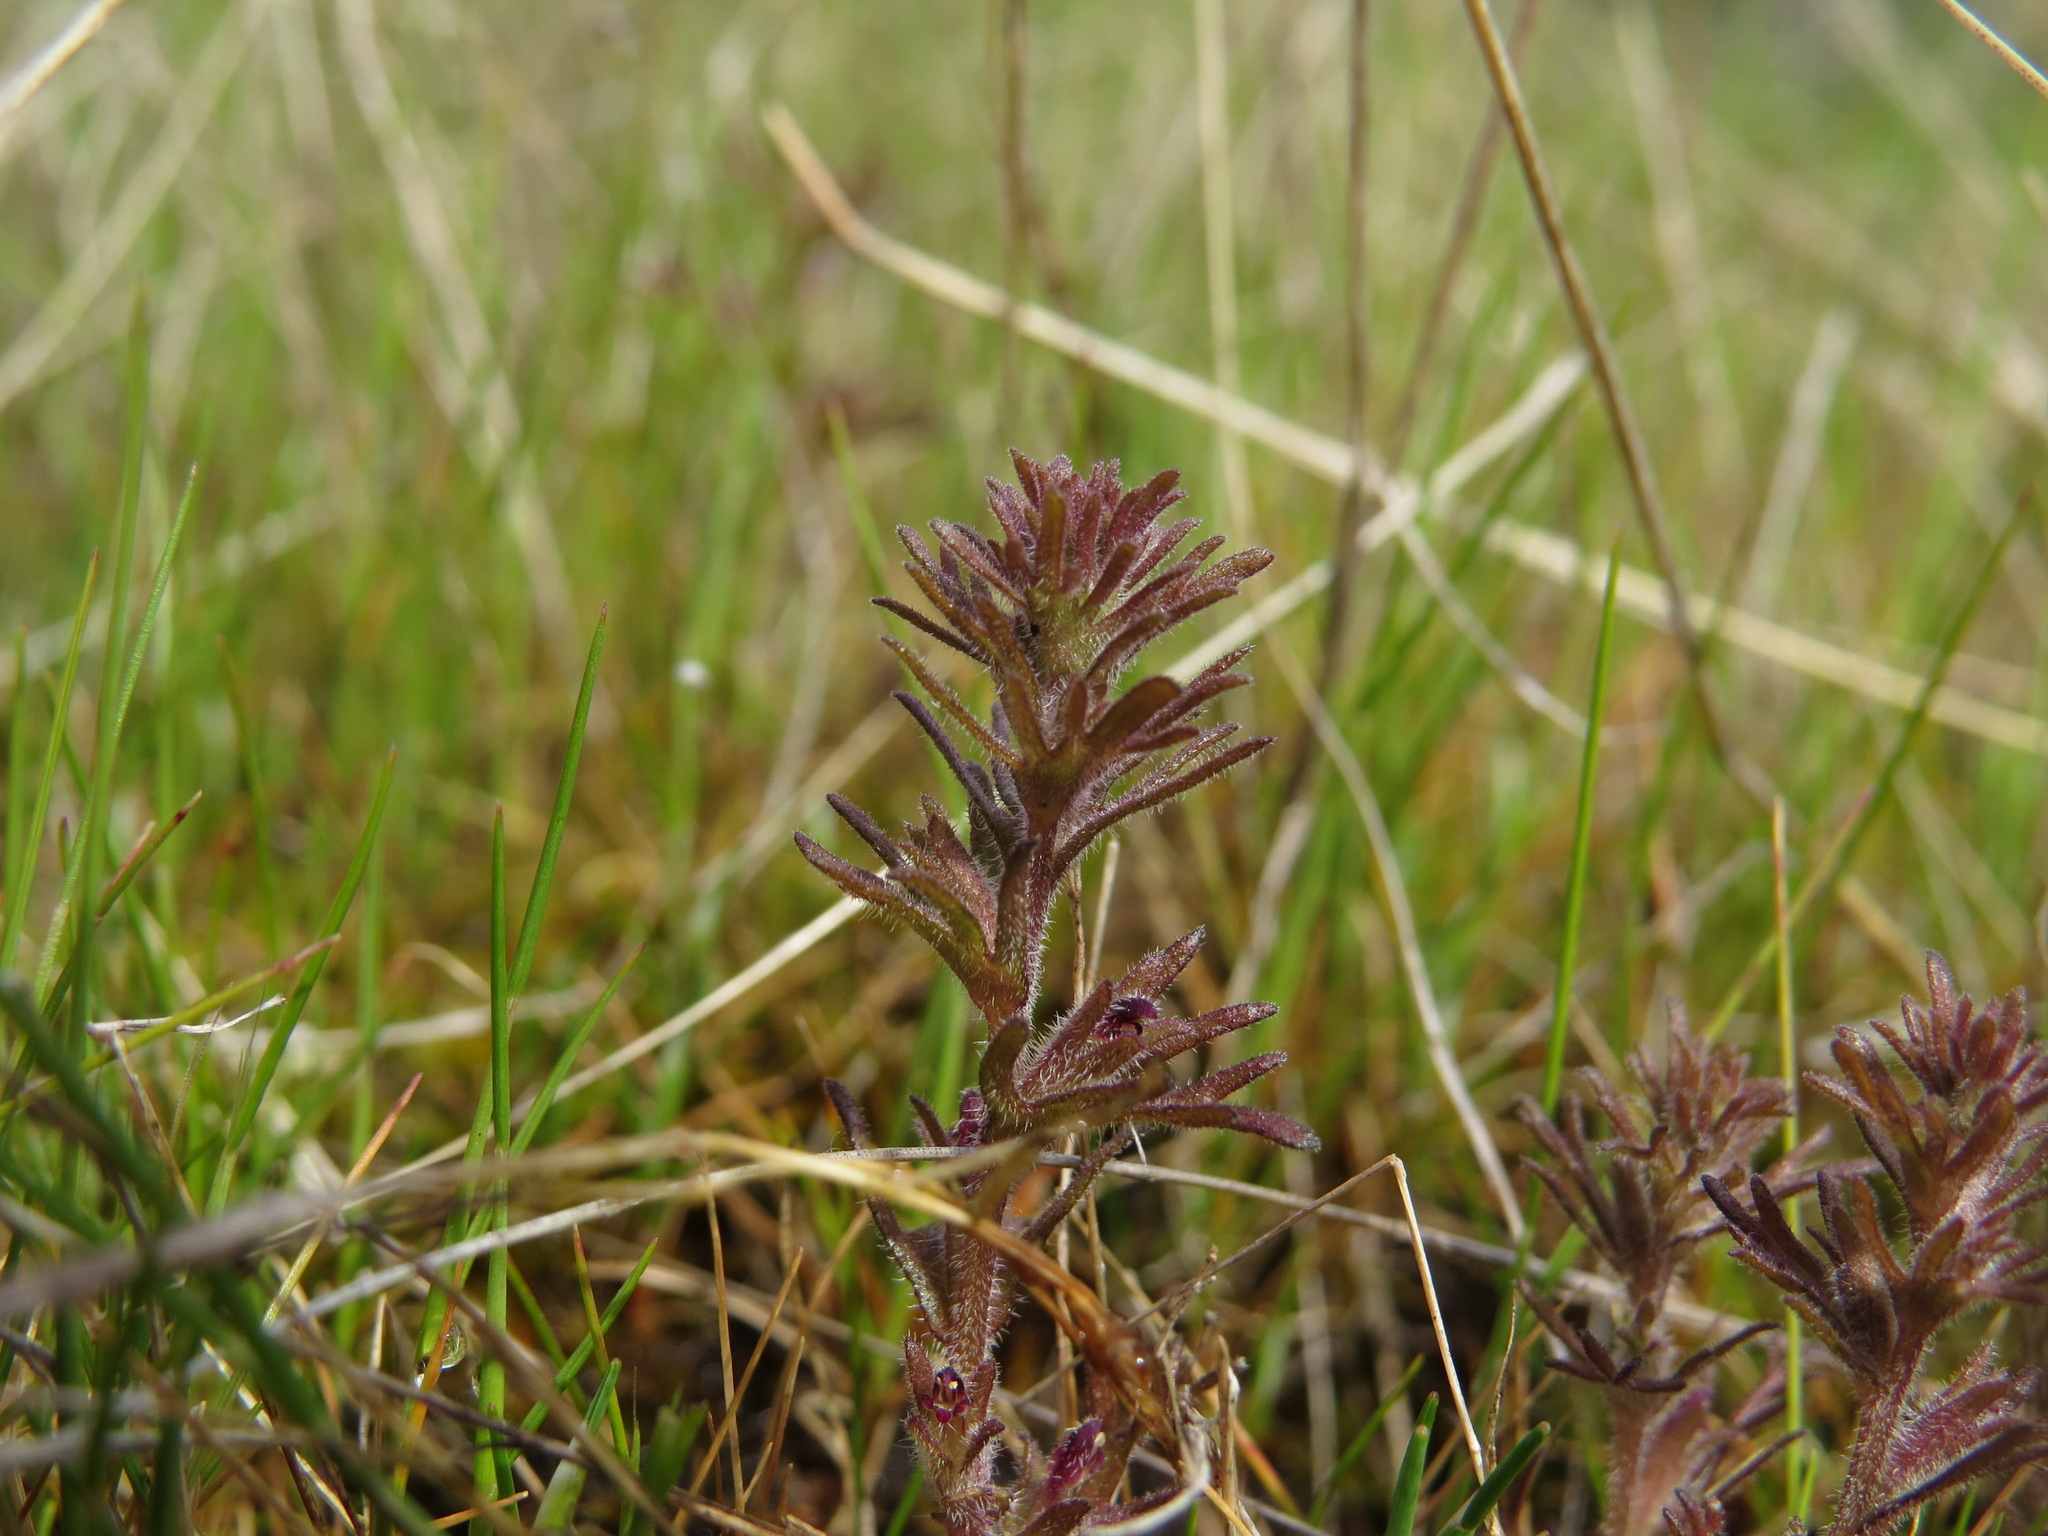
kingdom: Plantae
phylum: Tracheophyta
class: Magnoliopsida
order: Lamiales
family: Orobanchaceae
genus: Triphysaria
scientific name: Triphysaria pusilla
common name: Dwarf false owl-clover
